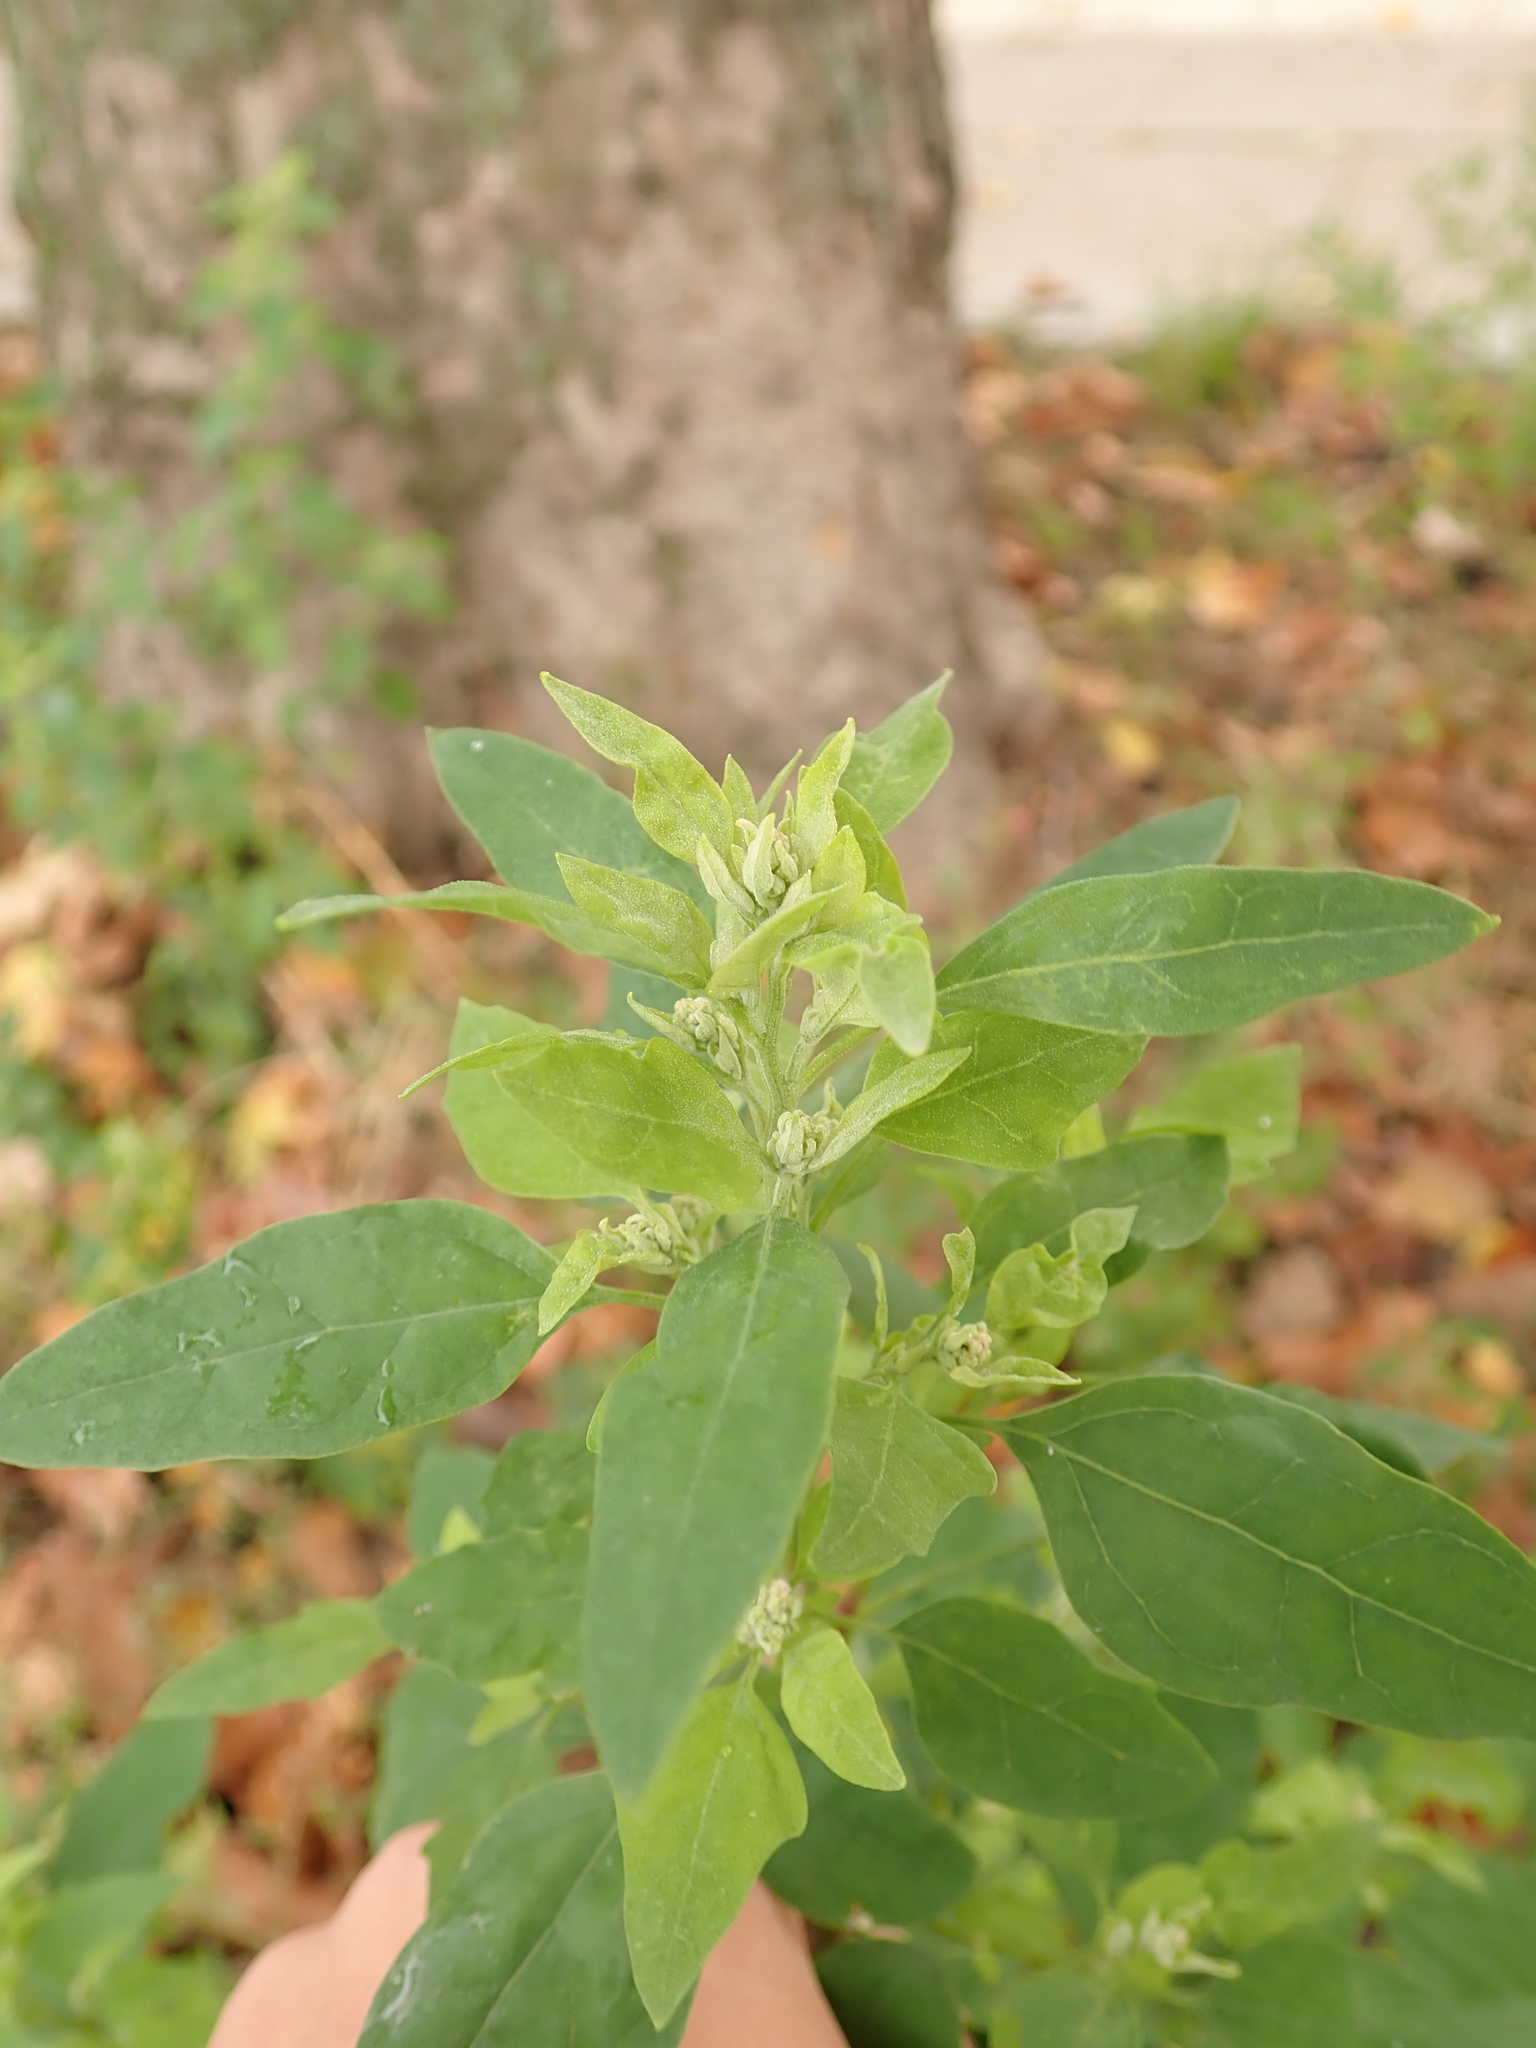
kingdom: Plantae
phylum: Tracheophyta
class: Magnoliopsida
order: Caryophyllales
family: Amaranthaceae
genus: Chenopodium
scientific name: Chenopodium album
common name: Fat-hen
